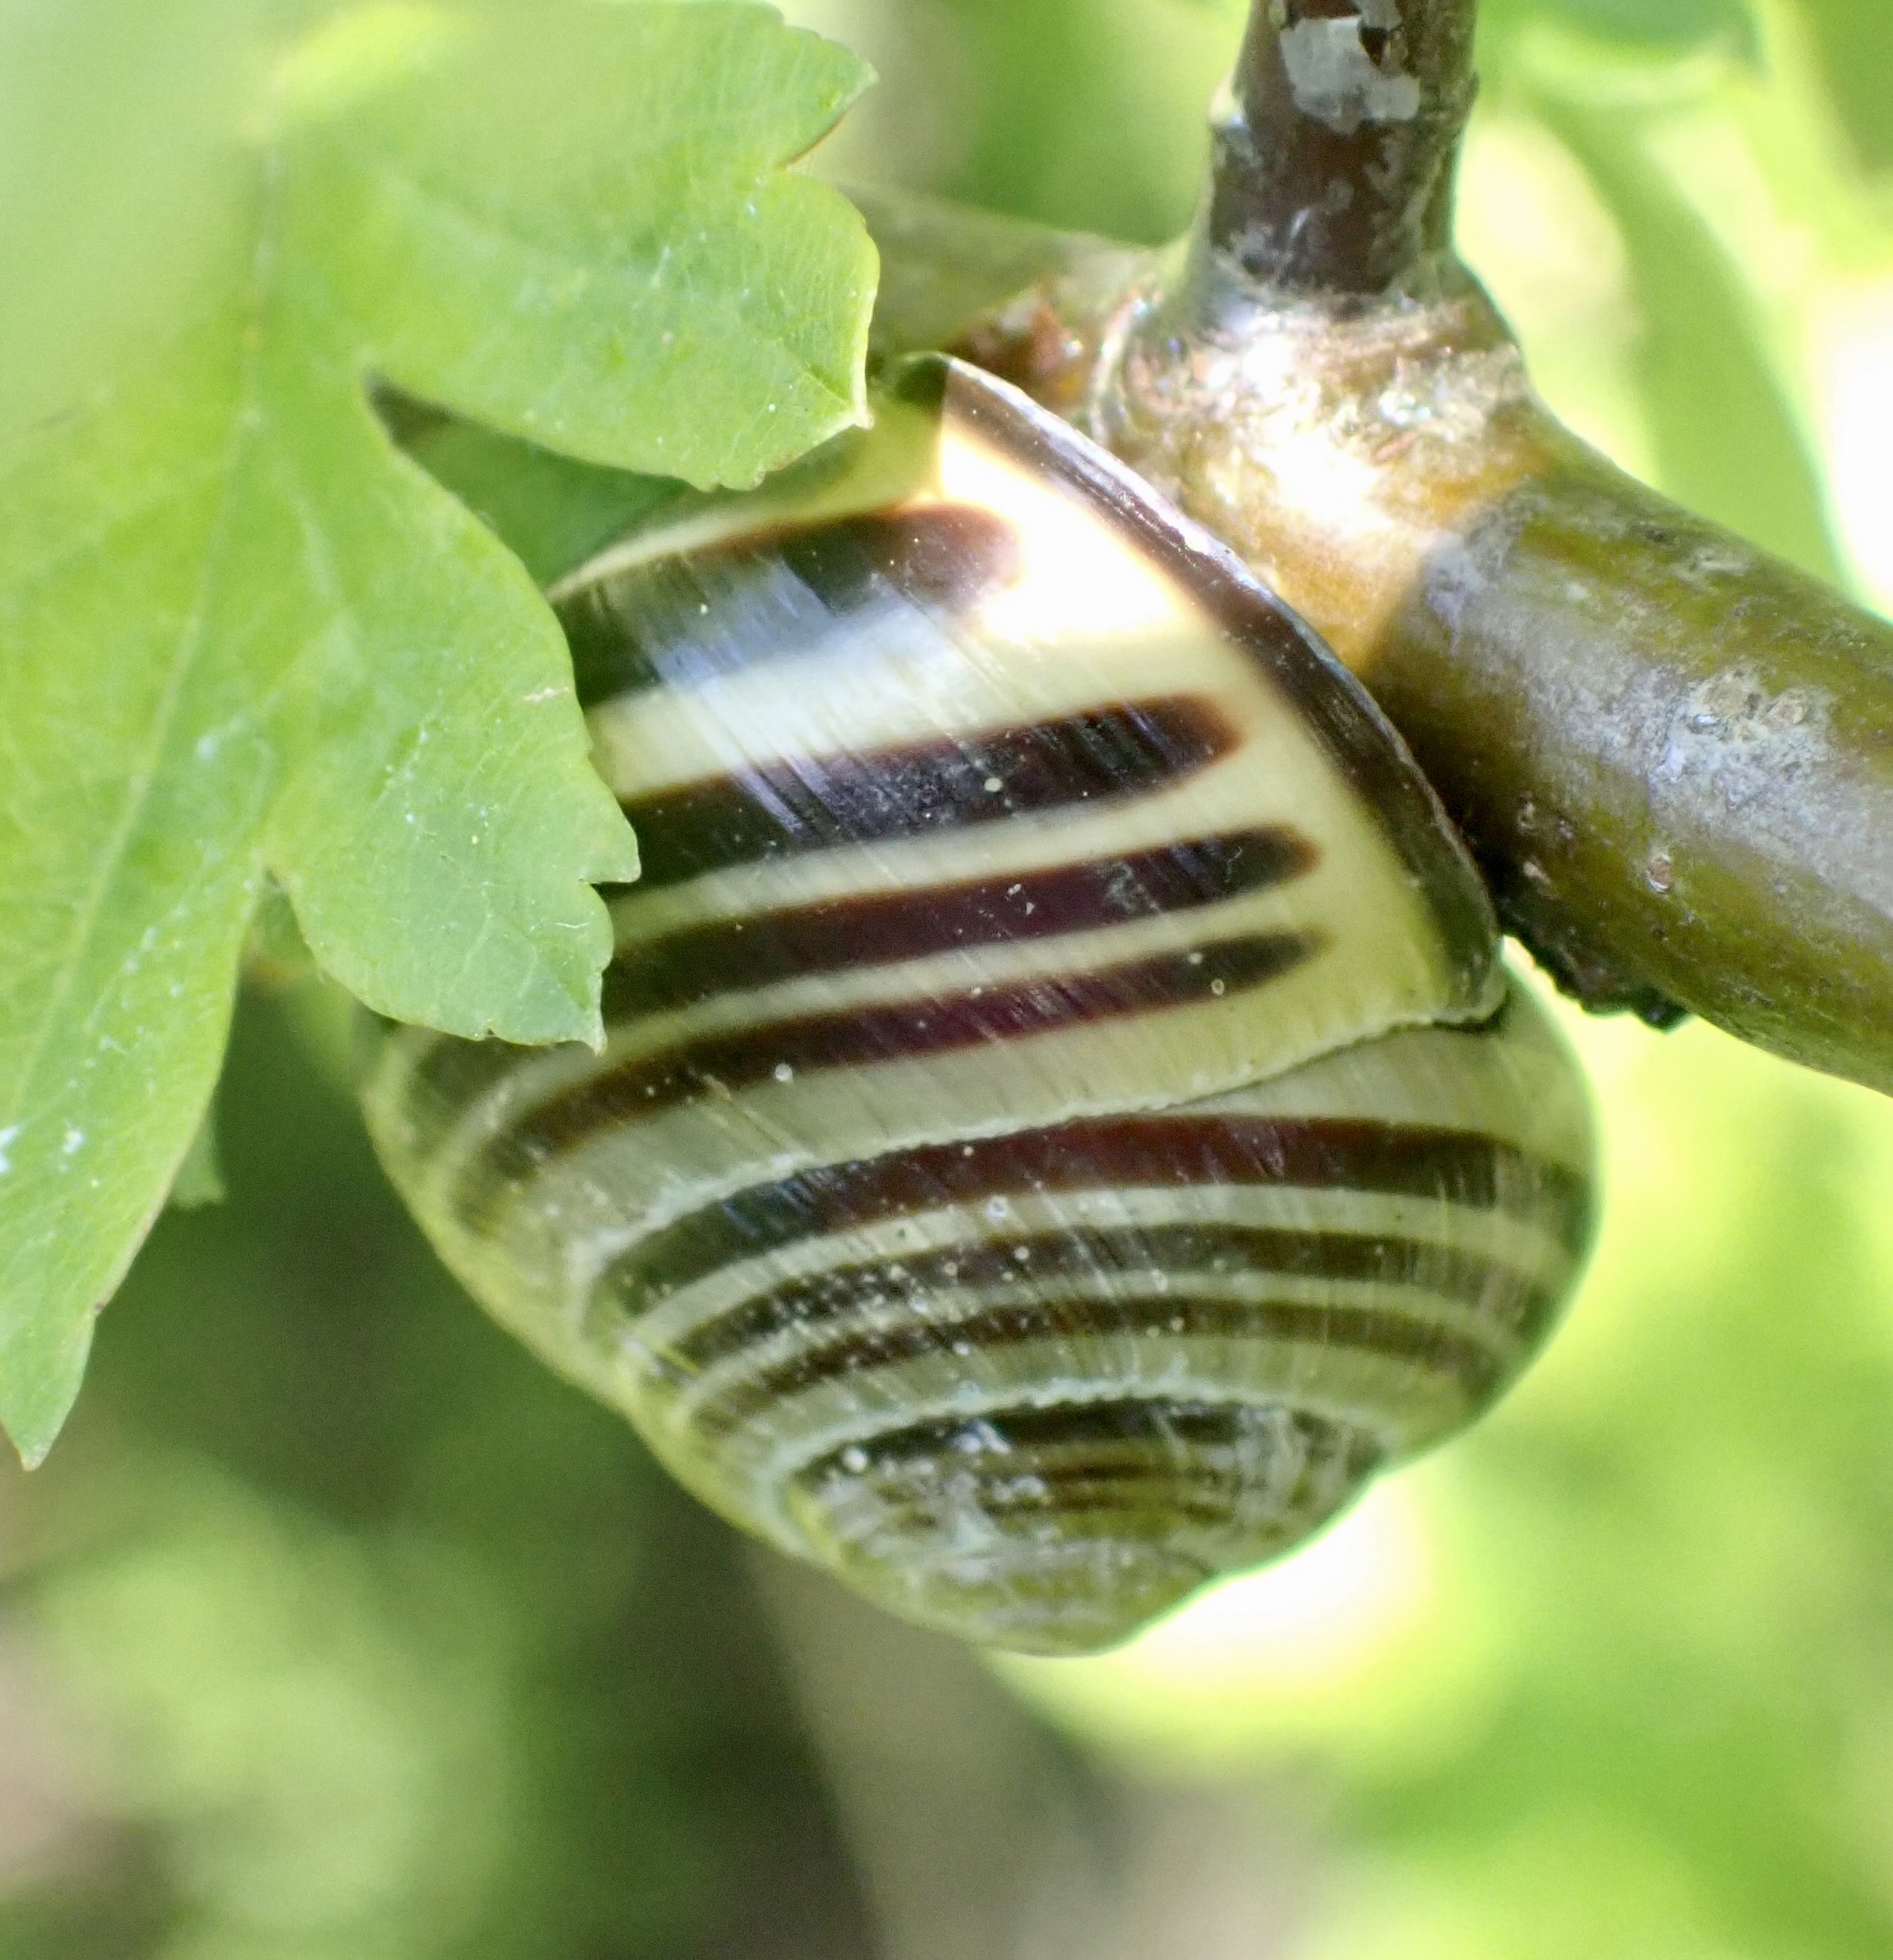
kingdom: Animalia
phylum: Mollusca
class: Gastropoda
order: Stylommatophora
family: Helicidae
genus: Cepaea
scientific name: Cepaea nemoralis
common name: Grovesnail
